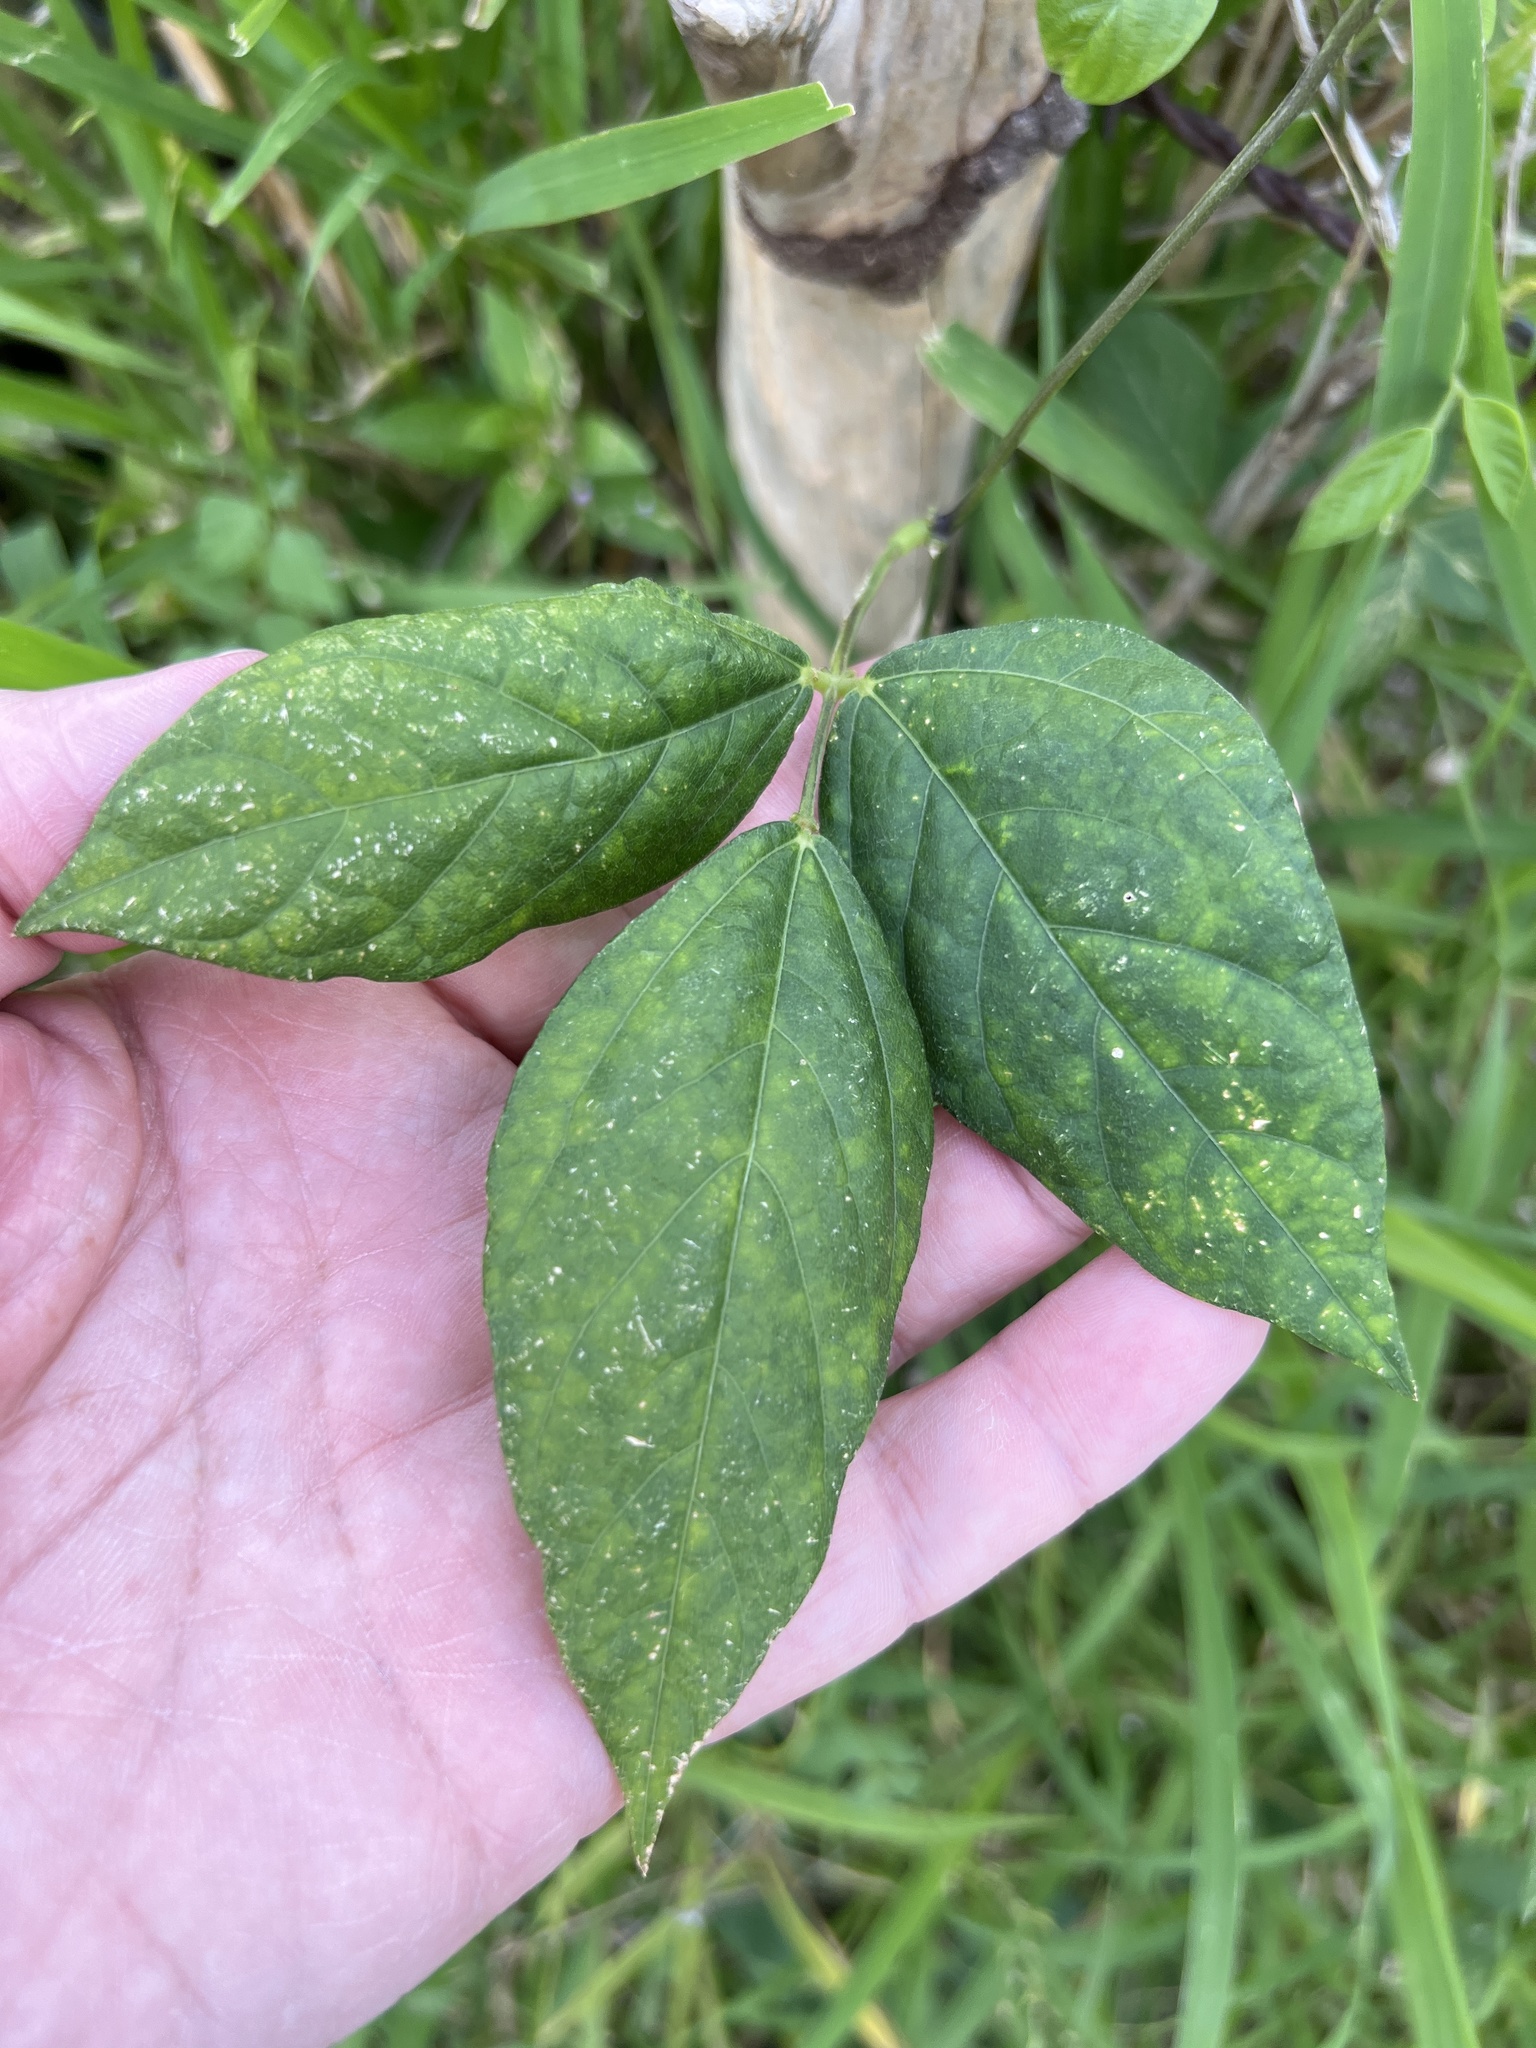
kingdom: Plantae
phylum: Tracheophyta
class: Magnoliopsida
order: Fabales
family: Fabaceae
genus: Vigna
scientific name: Vigna vexillata
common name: Zombi pea
